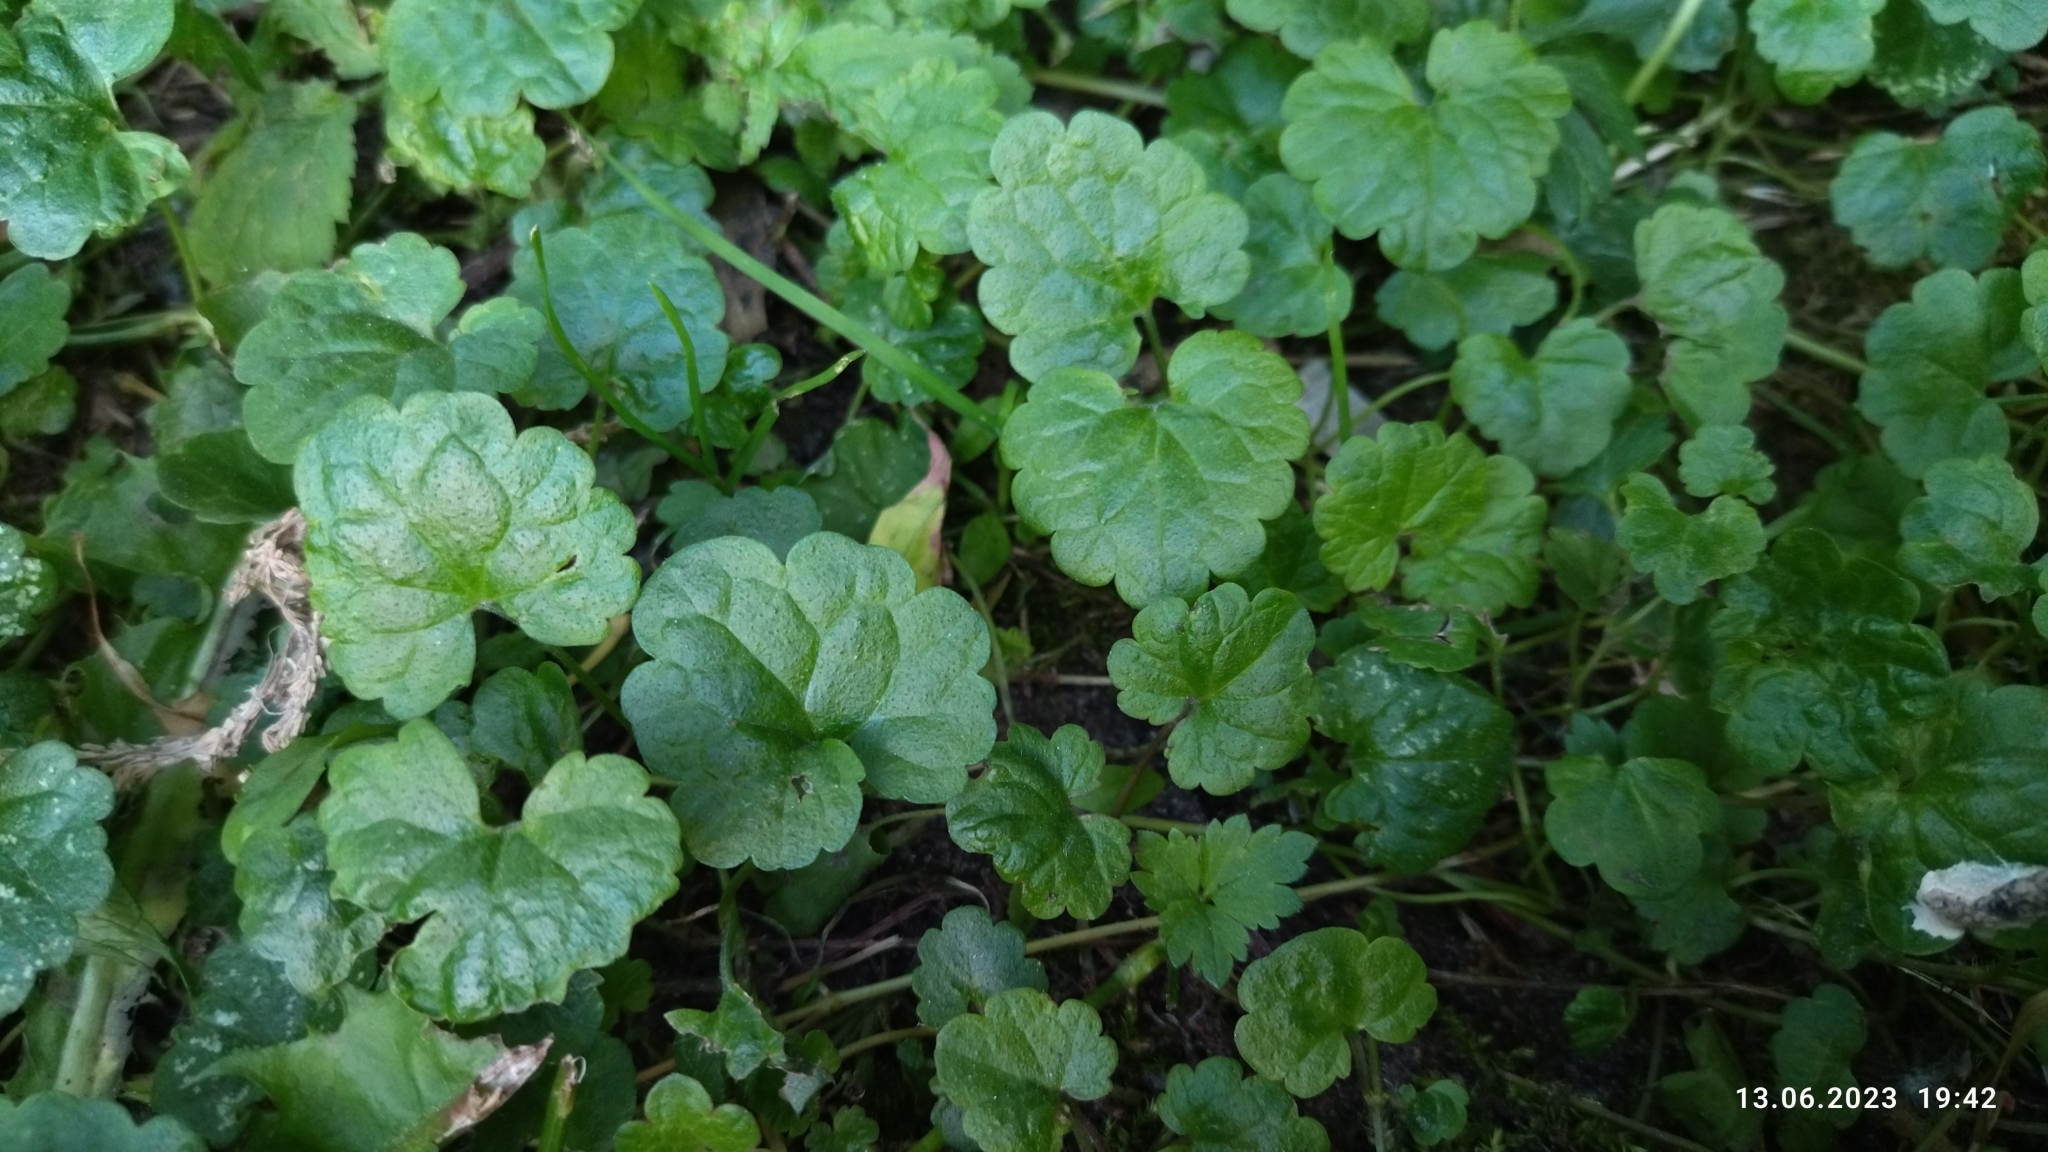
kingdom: Plantae
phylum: Tracheophyta
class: Magnoliopsida
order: Lamiales
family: Lamiaceae
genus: Glechoma
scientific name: Glechoma hederacea
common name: Ground ivy
